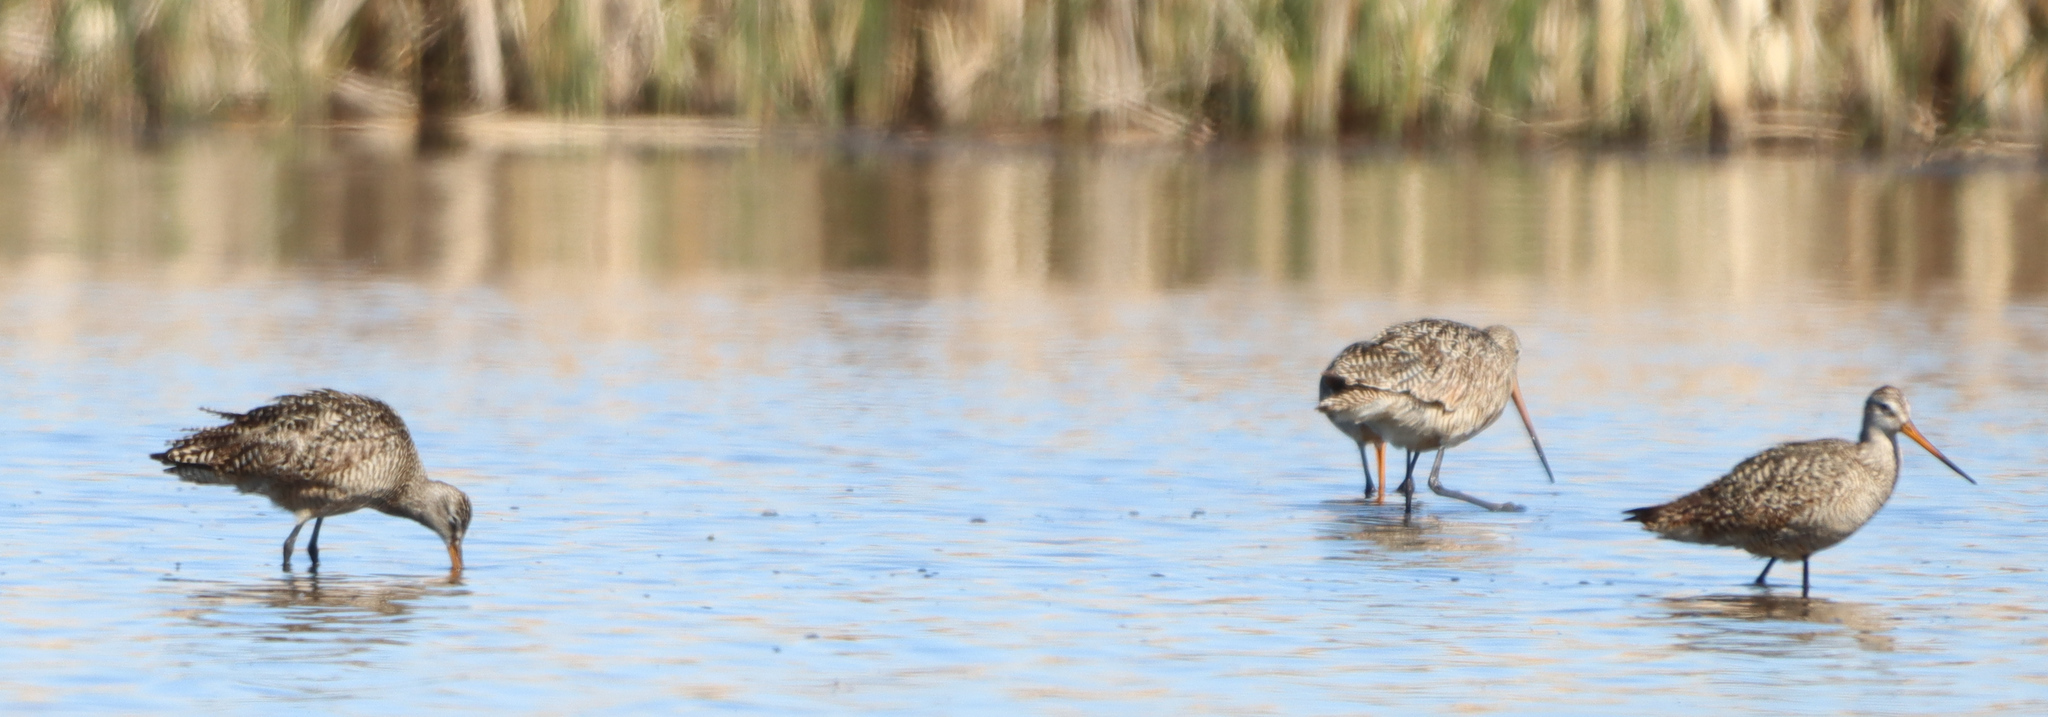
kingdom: Animalia
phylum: Chordata
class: Aves
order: Charadriiformes
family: Scolopacidae
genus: Limosa
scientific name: Limosa fedoa
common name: Marbled godwit
